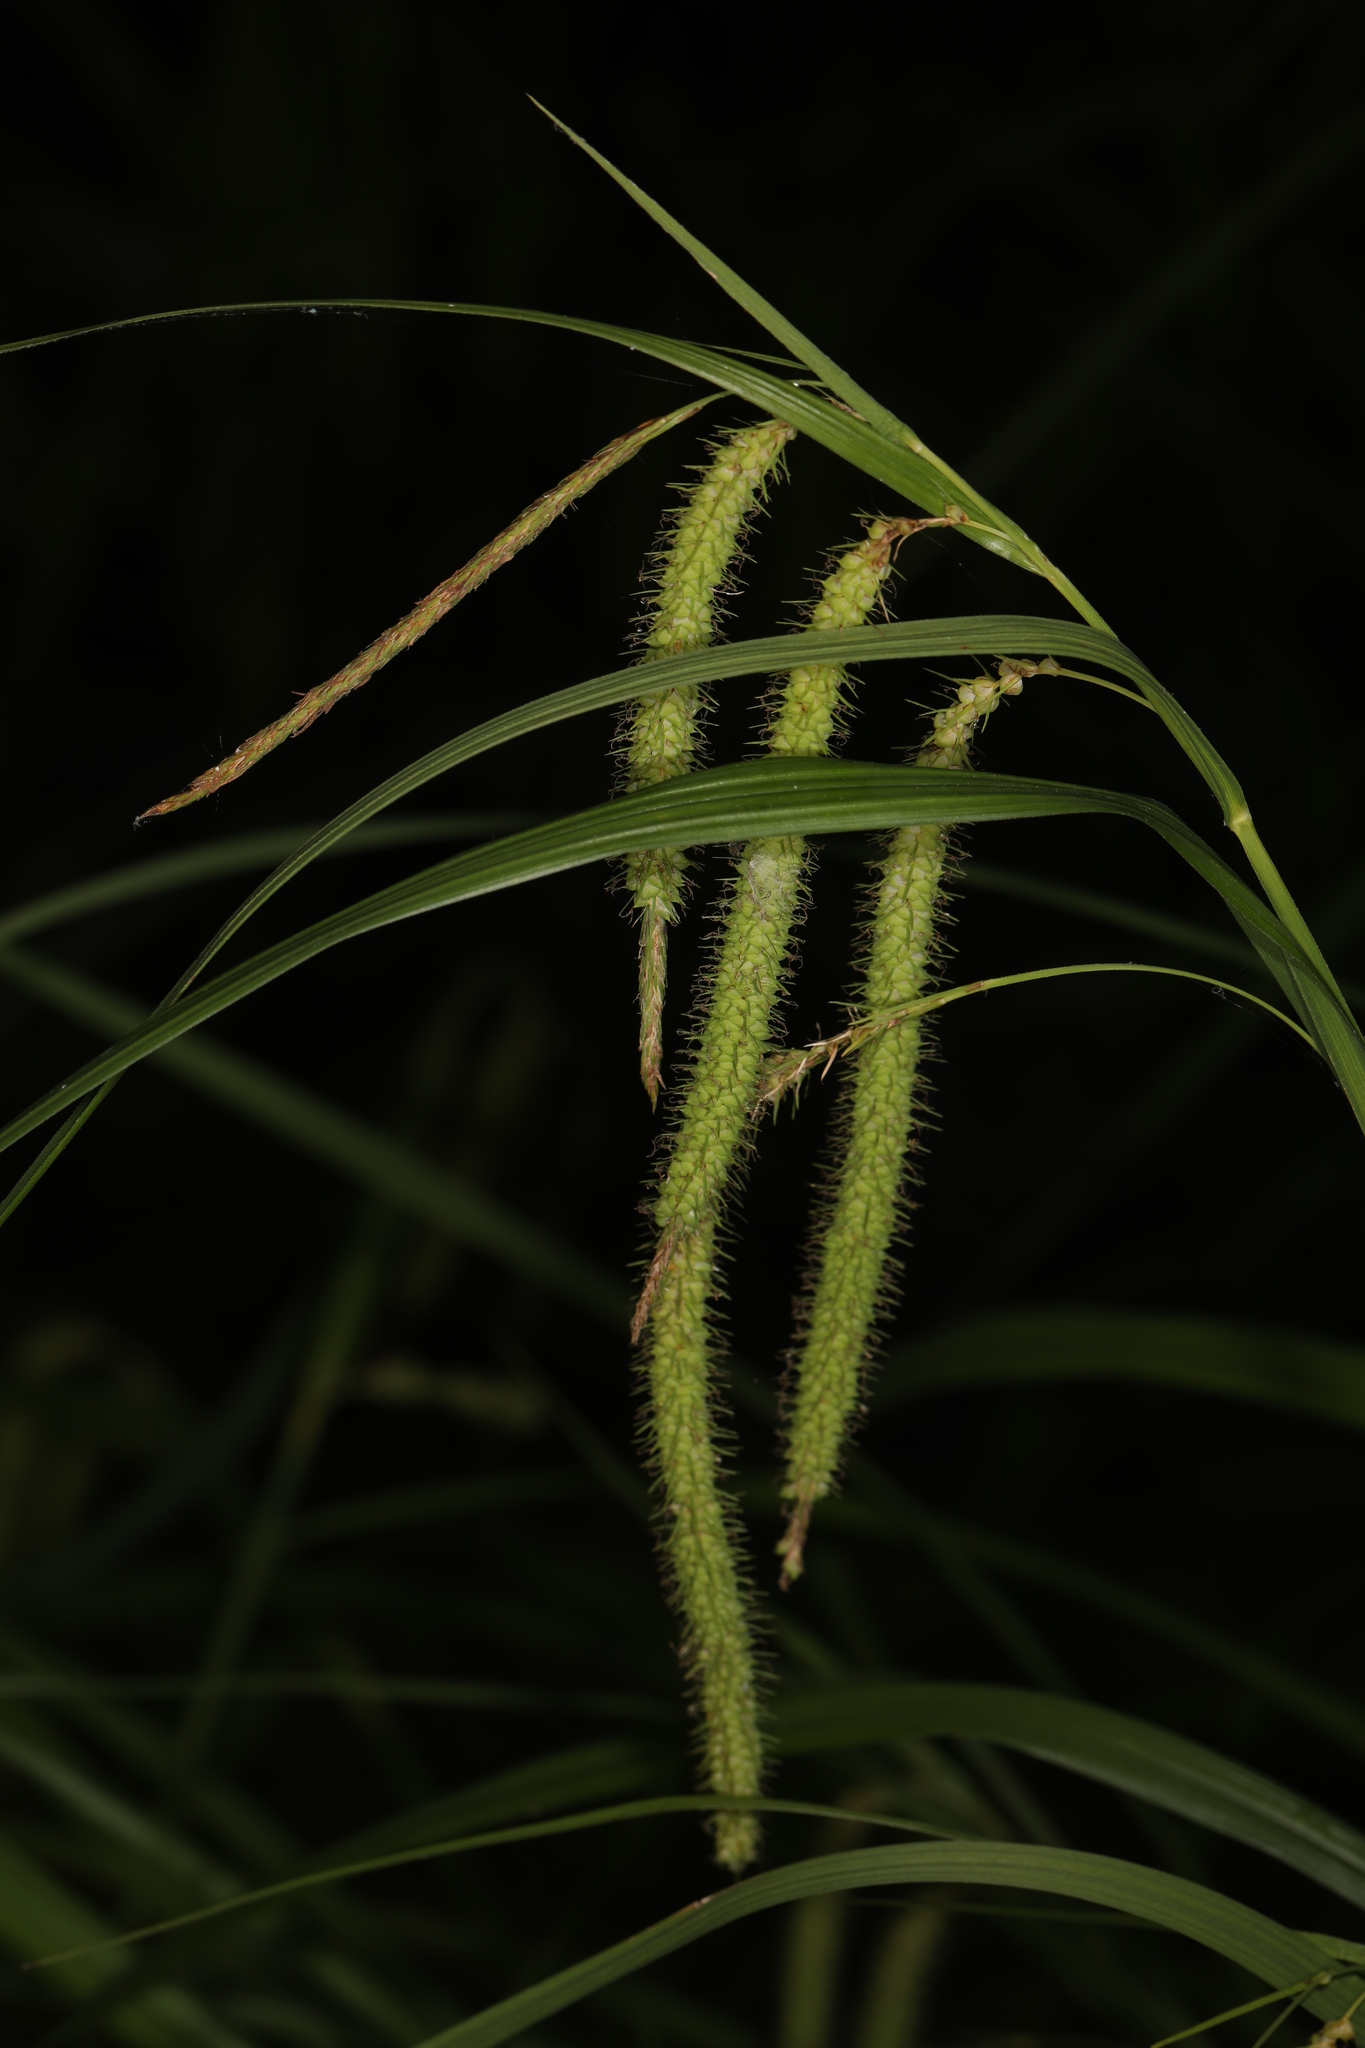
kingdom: Plantae
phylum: Tracheophyta
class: Liliopsida
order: Poales
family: Cyperaceae
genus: Carex
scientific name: Carex crinita
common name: Fringed sedge
